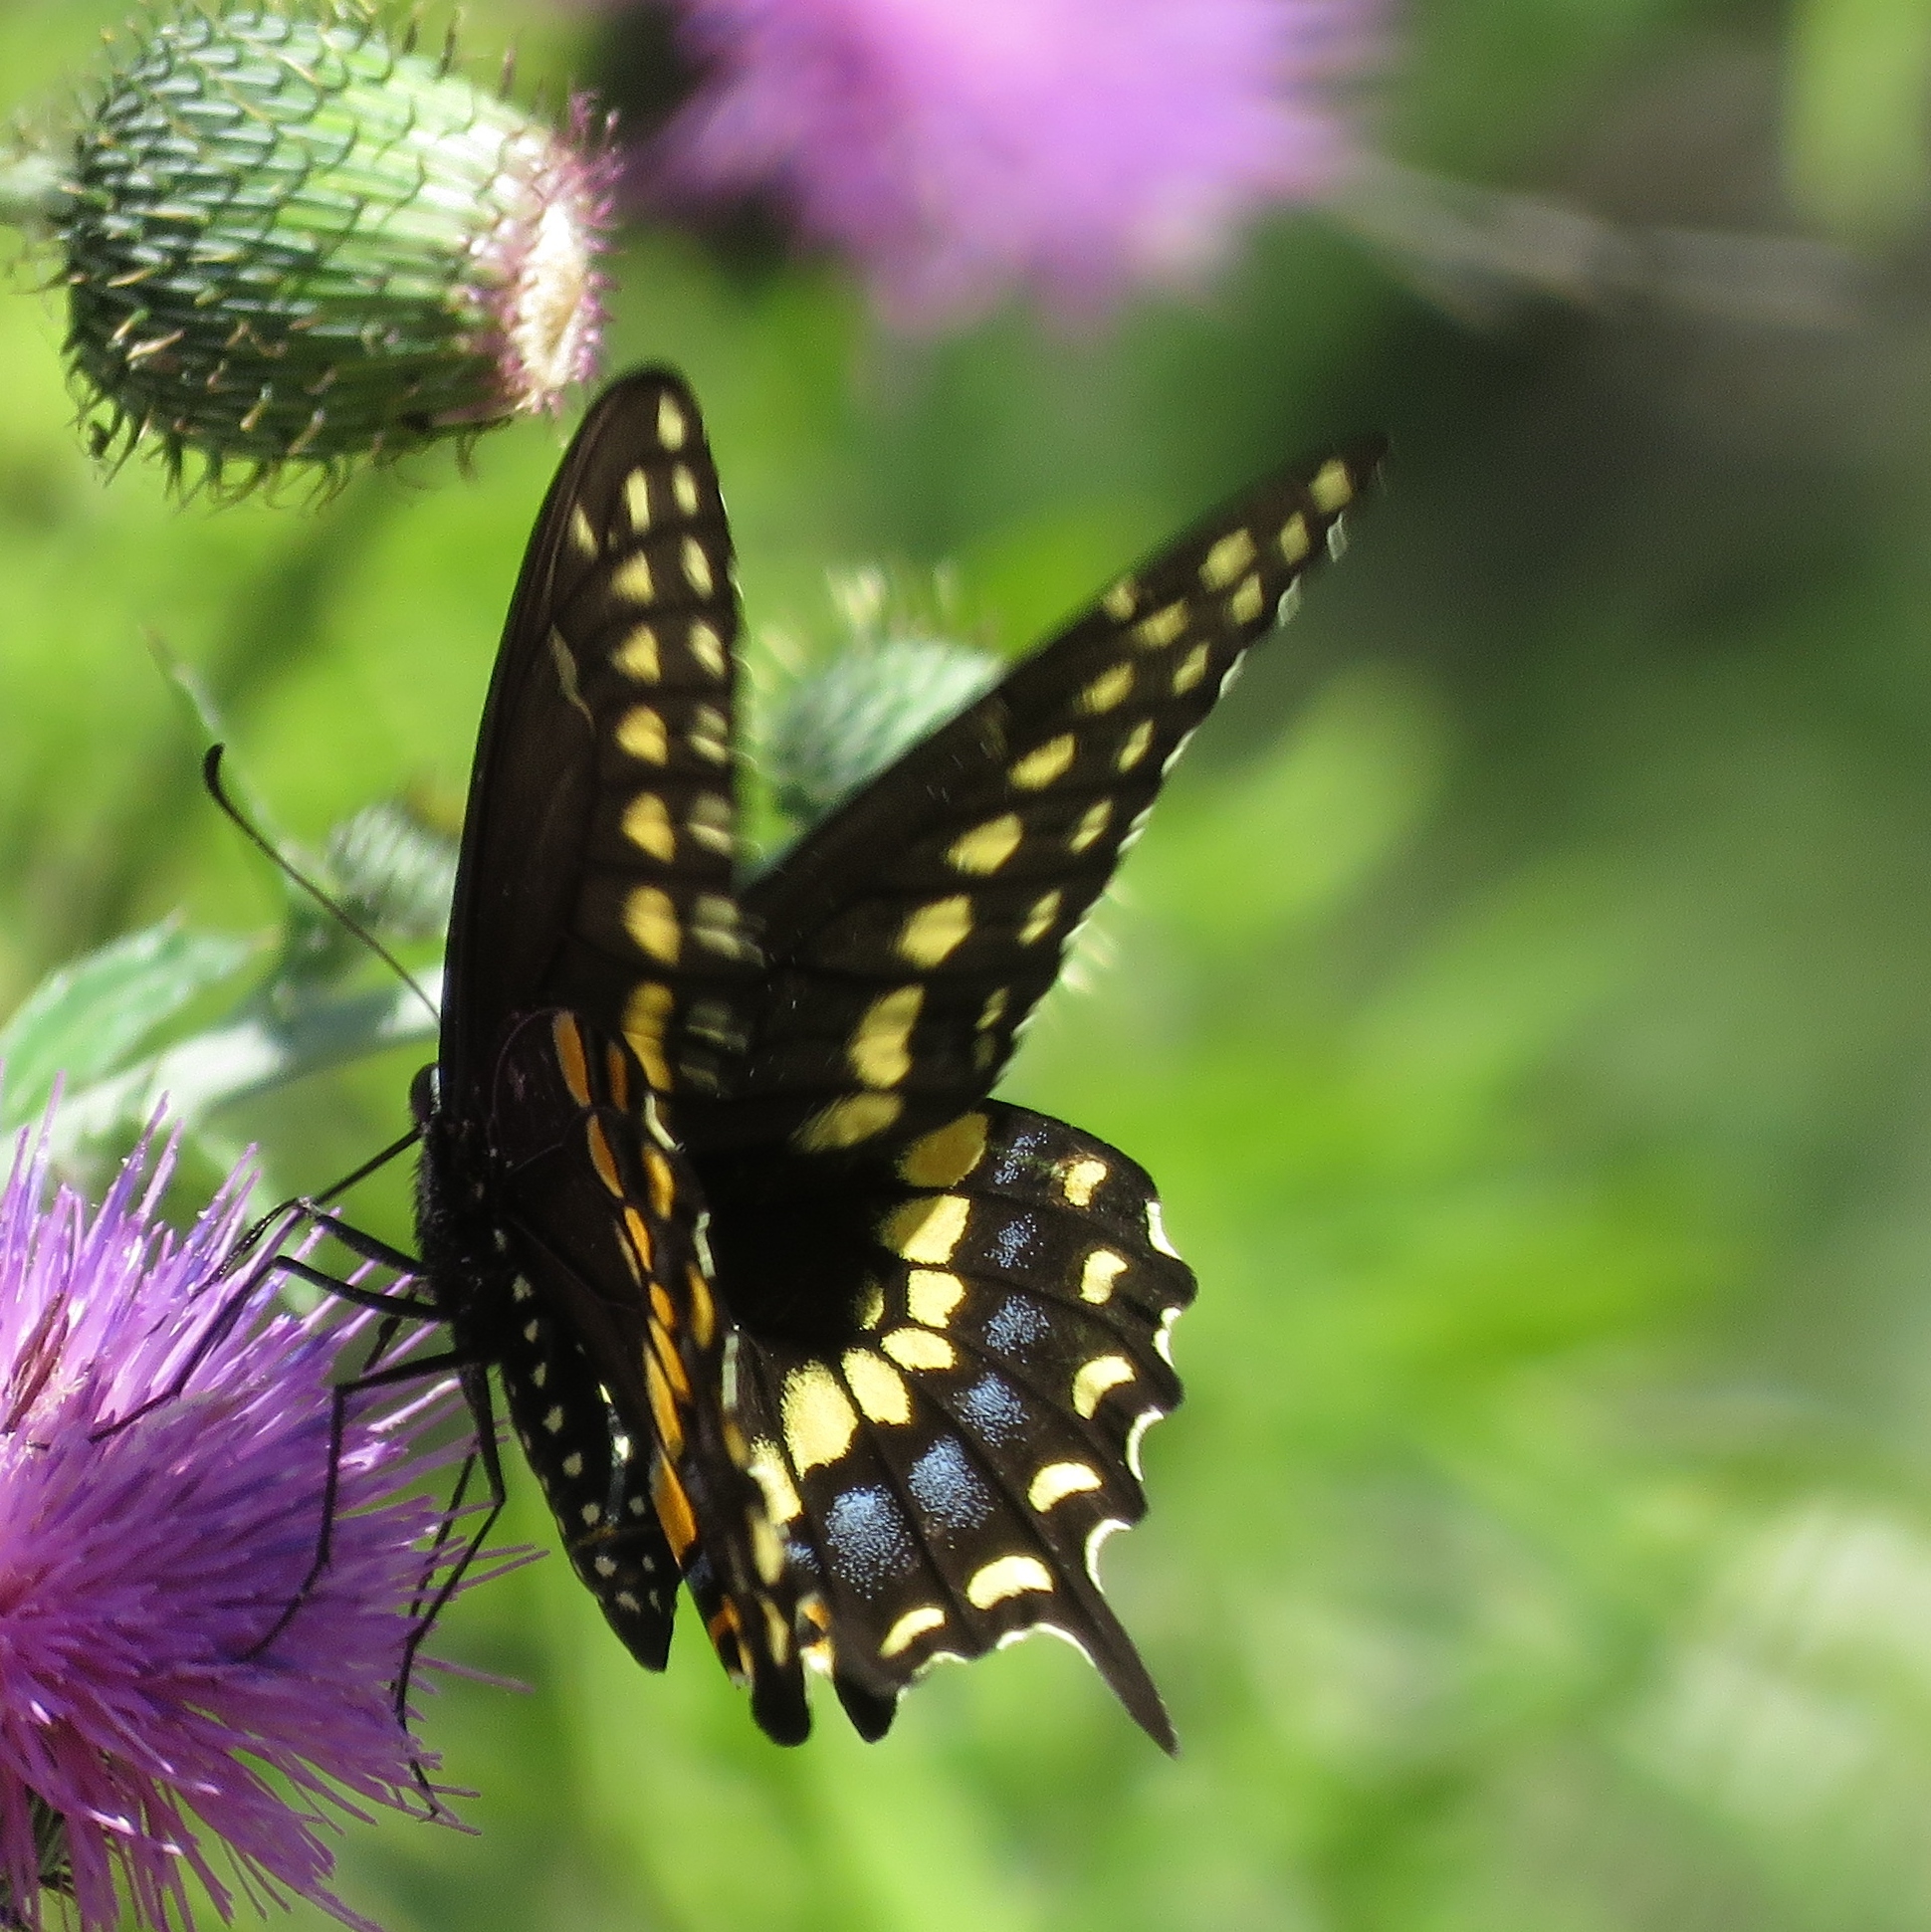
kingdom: Animalia
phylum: Arthropoda
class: Insecta
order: Lepidoptera
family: Papilionidae
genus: Papilio
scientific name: Papilio polyxenes
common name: Black swallowtail
